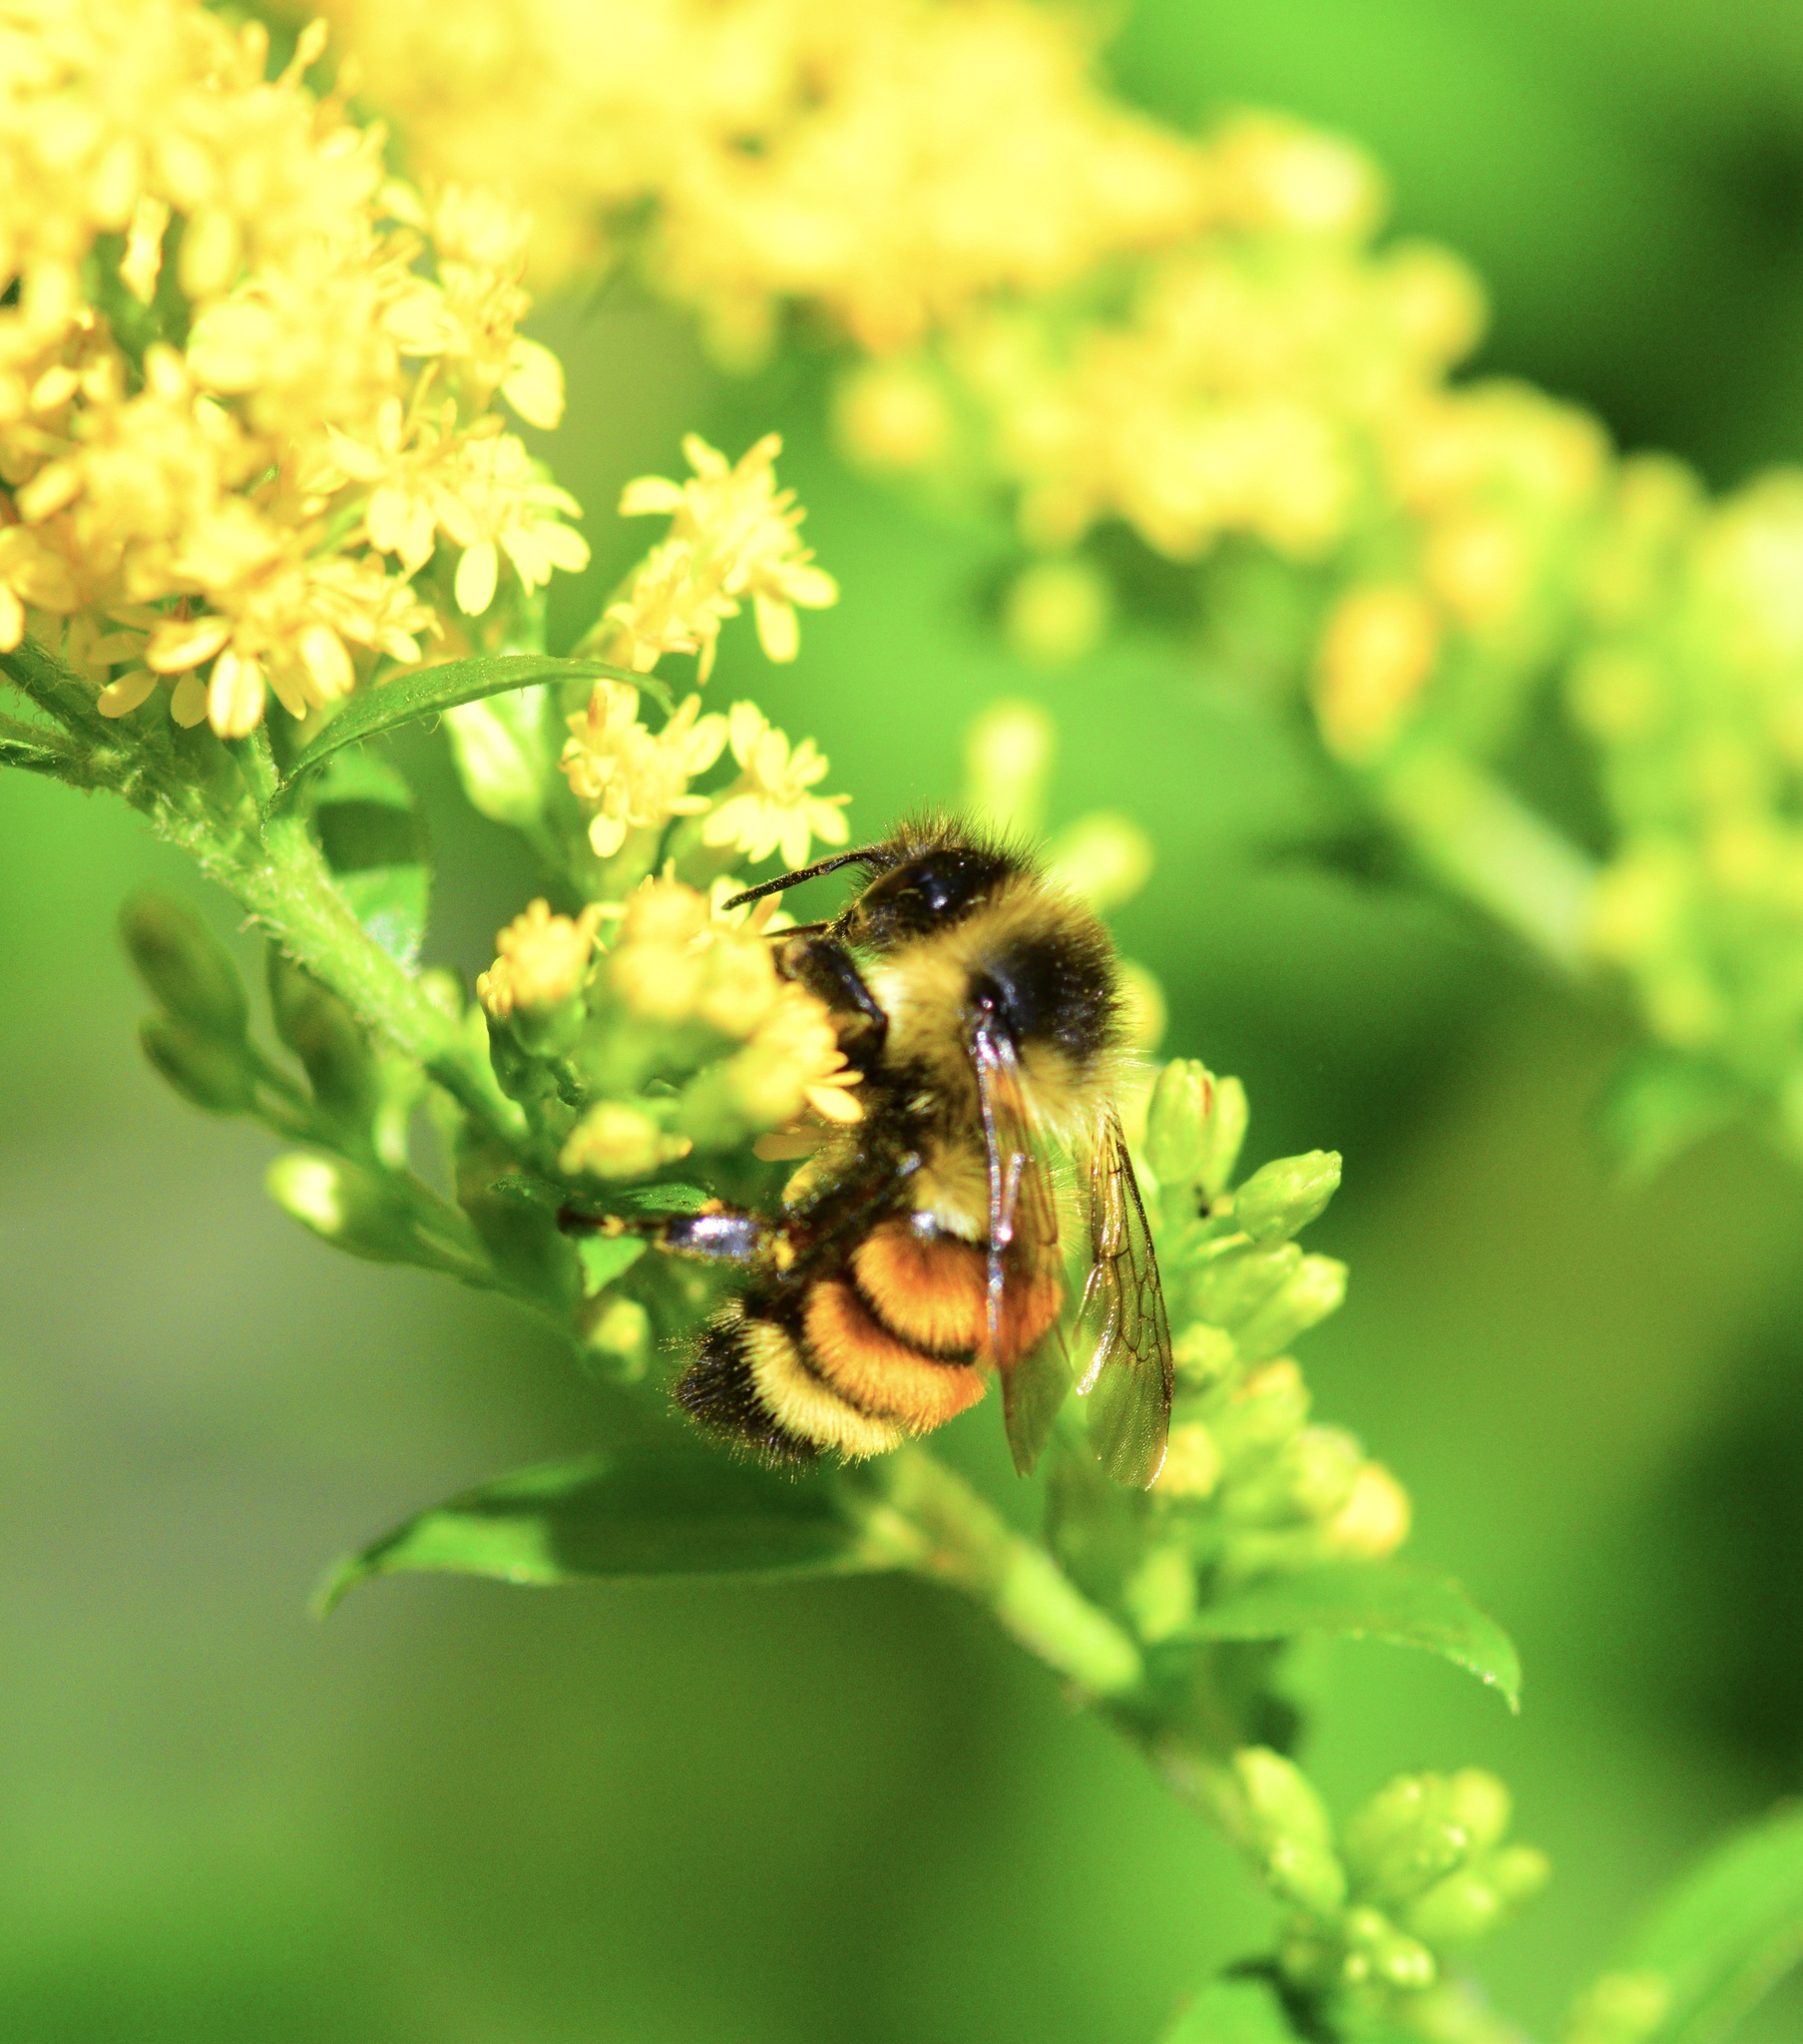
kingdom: Animalia
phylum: Arthropoda
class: Insecta
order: Hymenoptera
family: Apidae
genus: Bombus
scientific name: Bombus ternarius
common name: Tri-colored bumble bee
